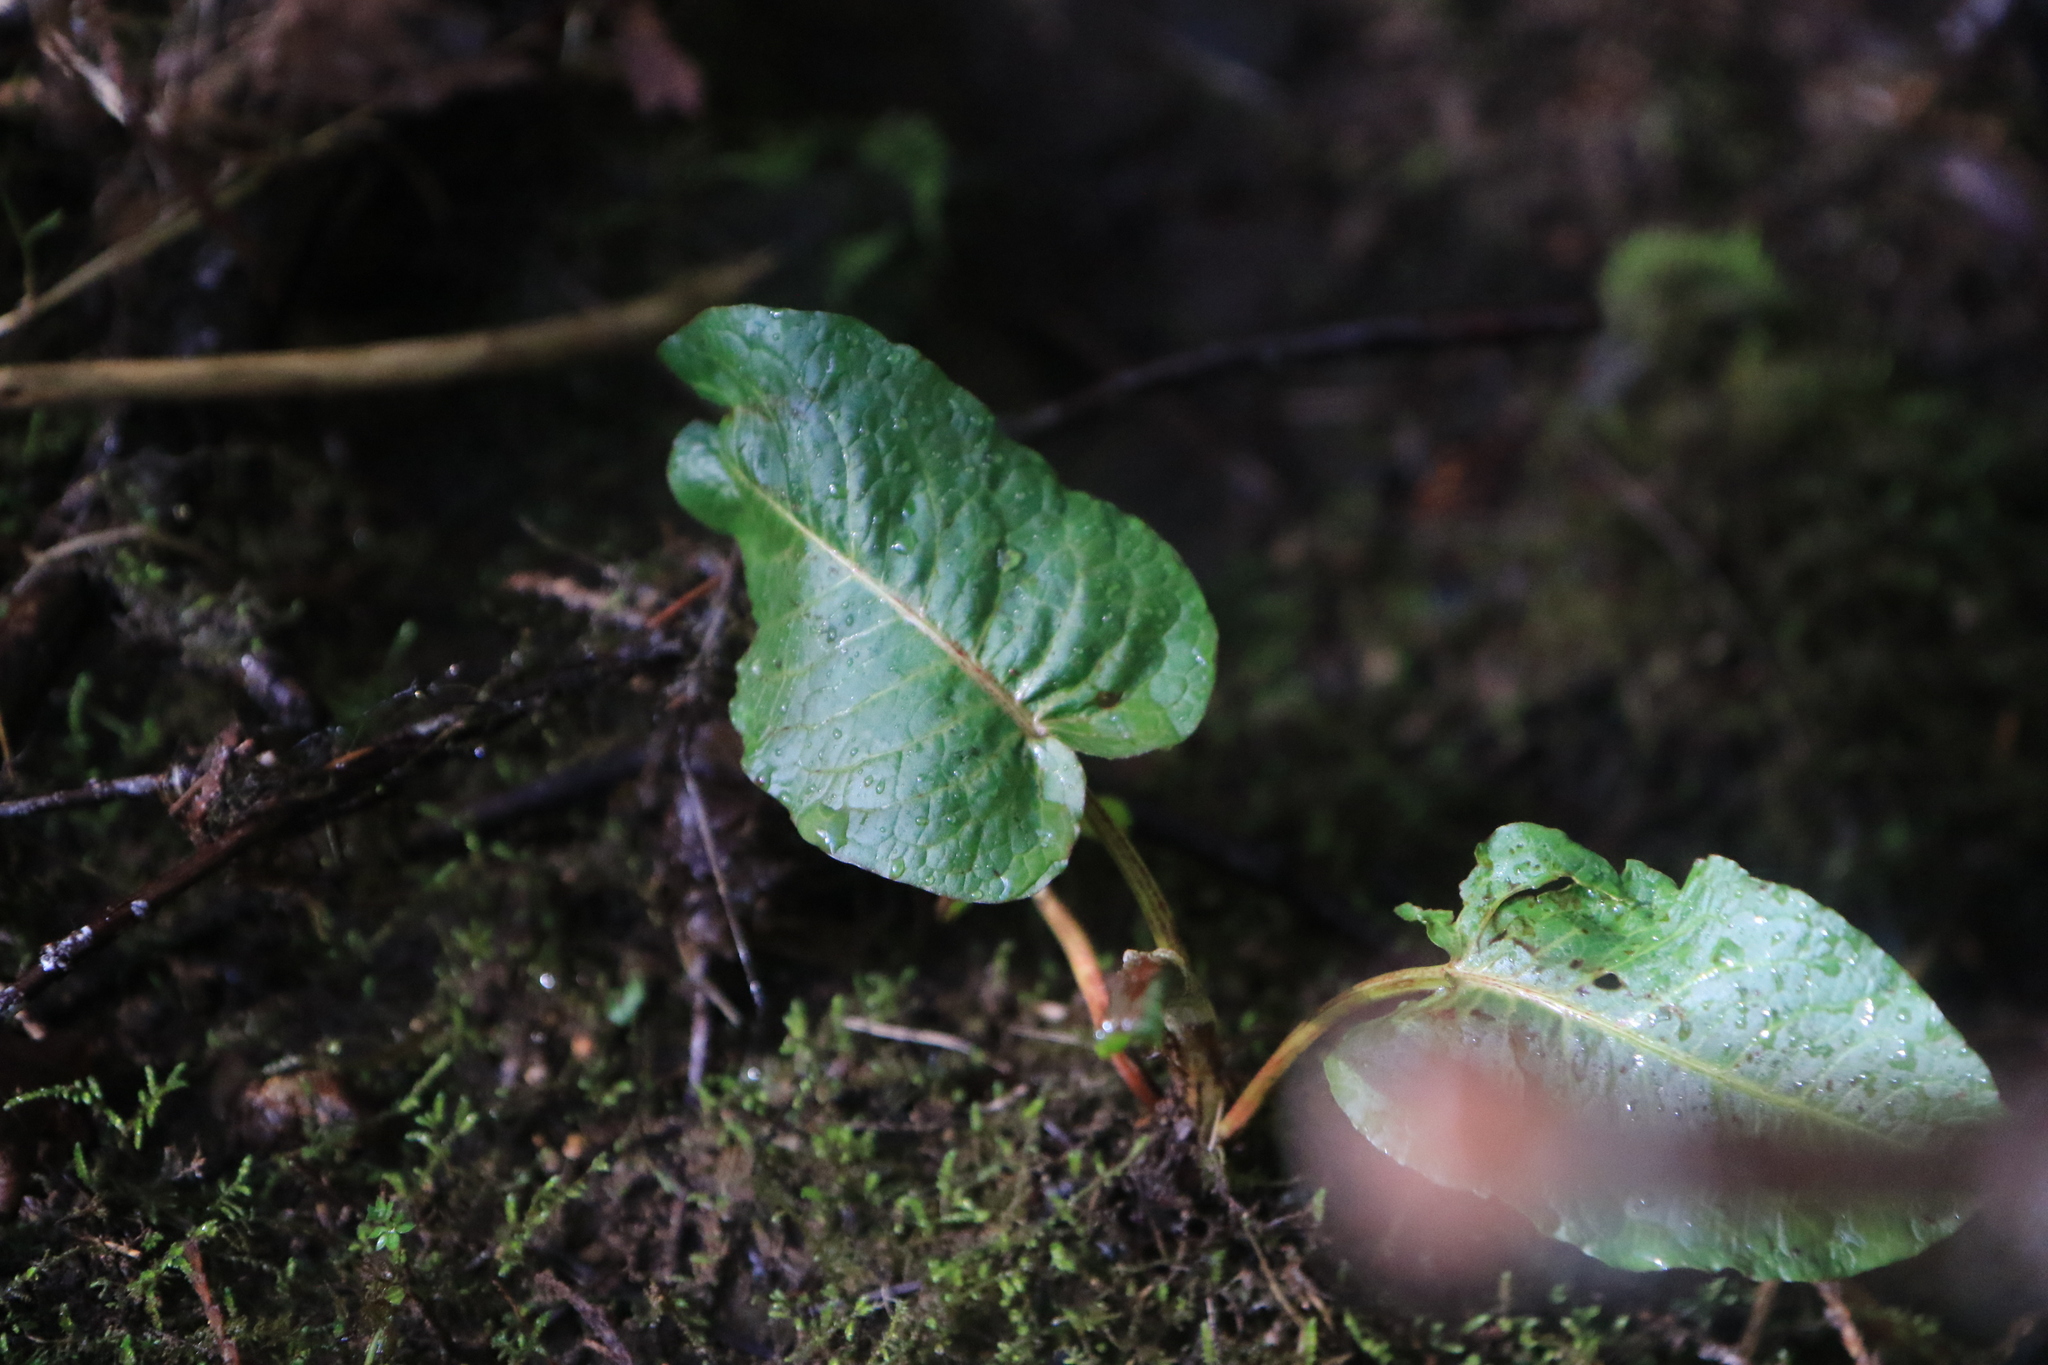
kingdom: Plantae
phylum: Tracheophyta
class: Magnoliopsida
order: Caryophyllales
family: Polygonaceae
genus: Rumex
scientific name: Rumex obtusifolius
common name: Bitter dock
